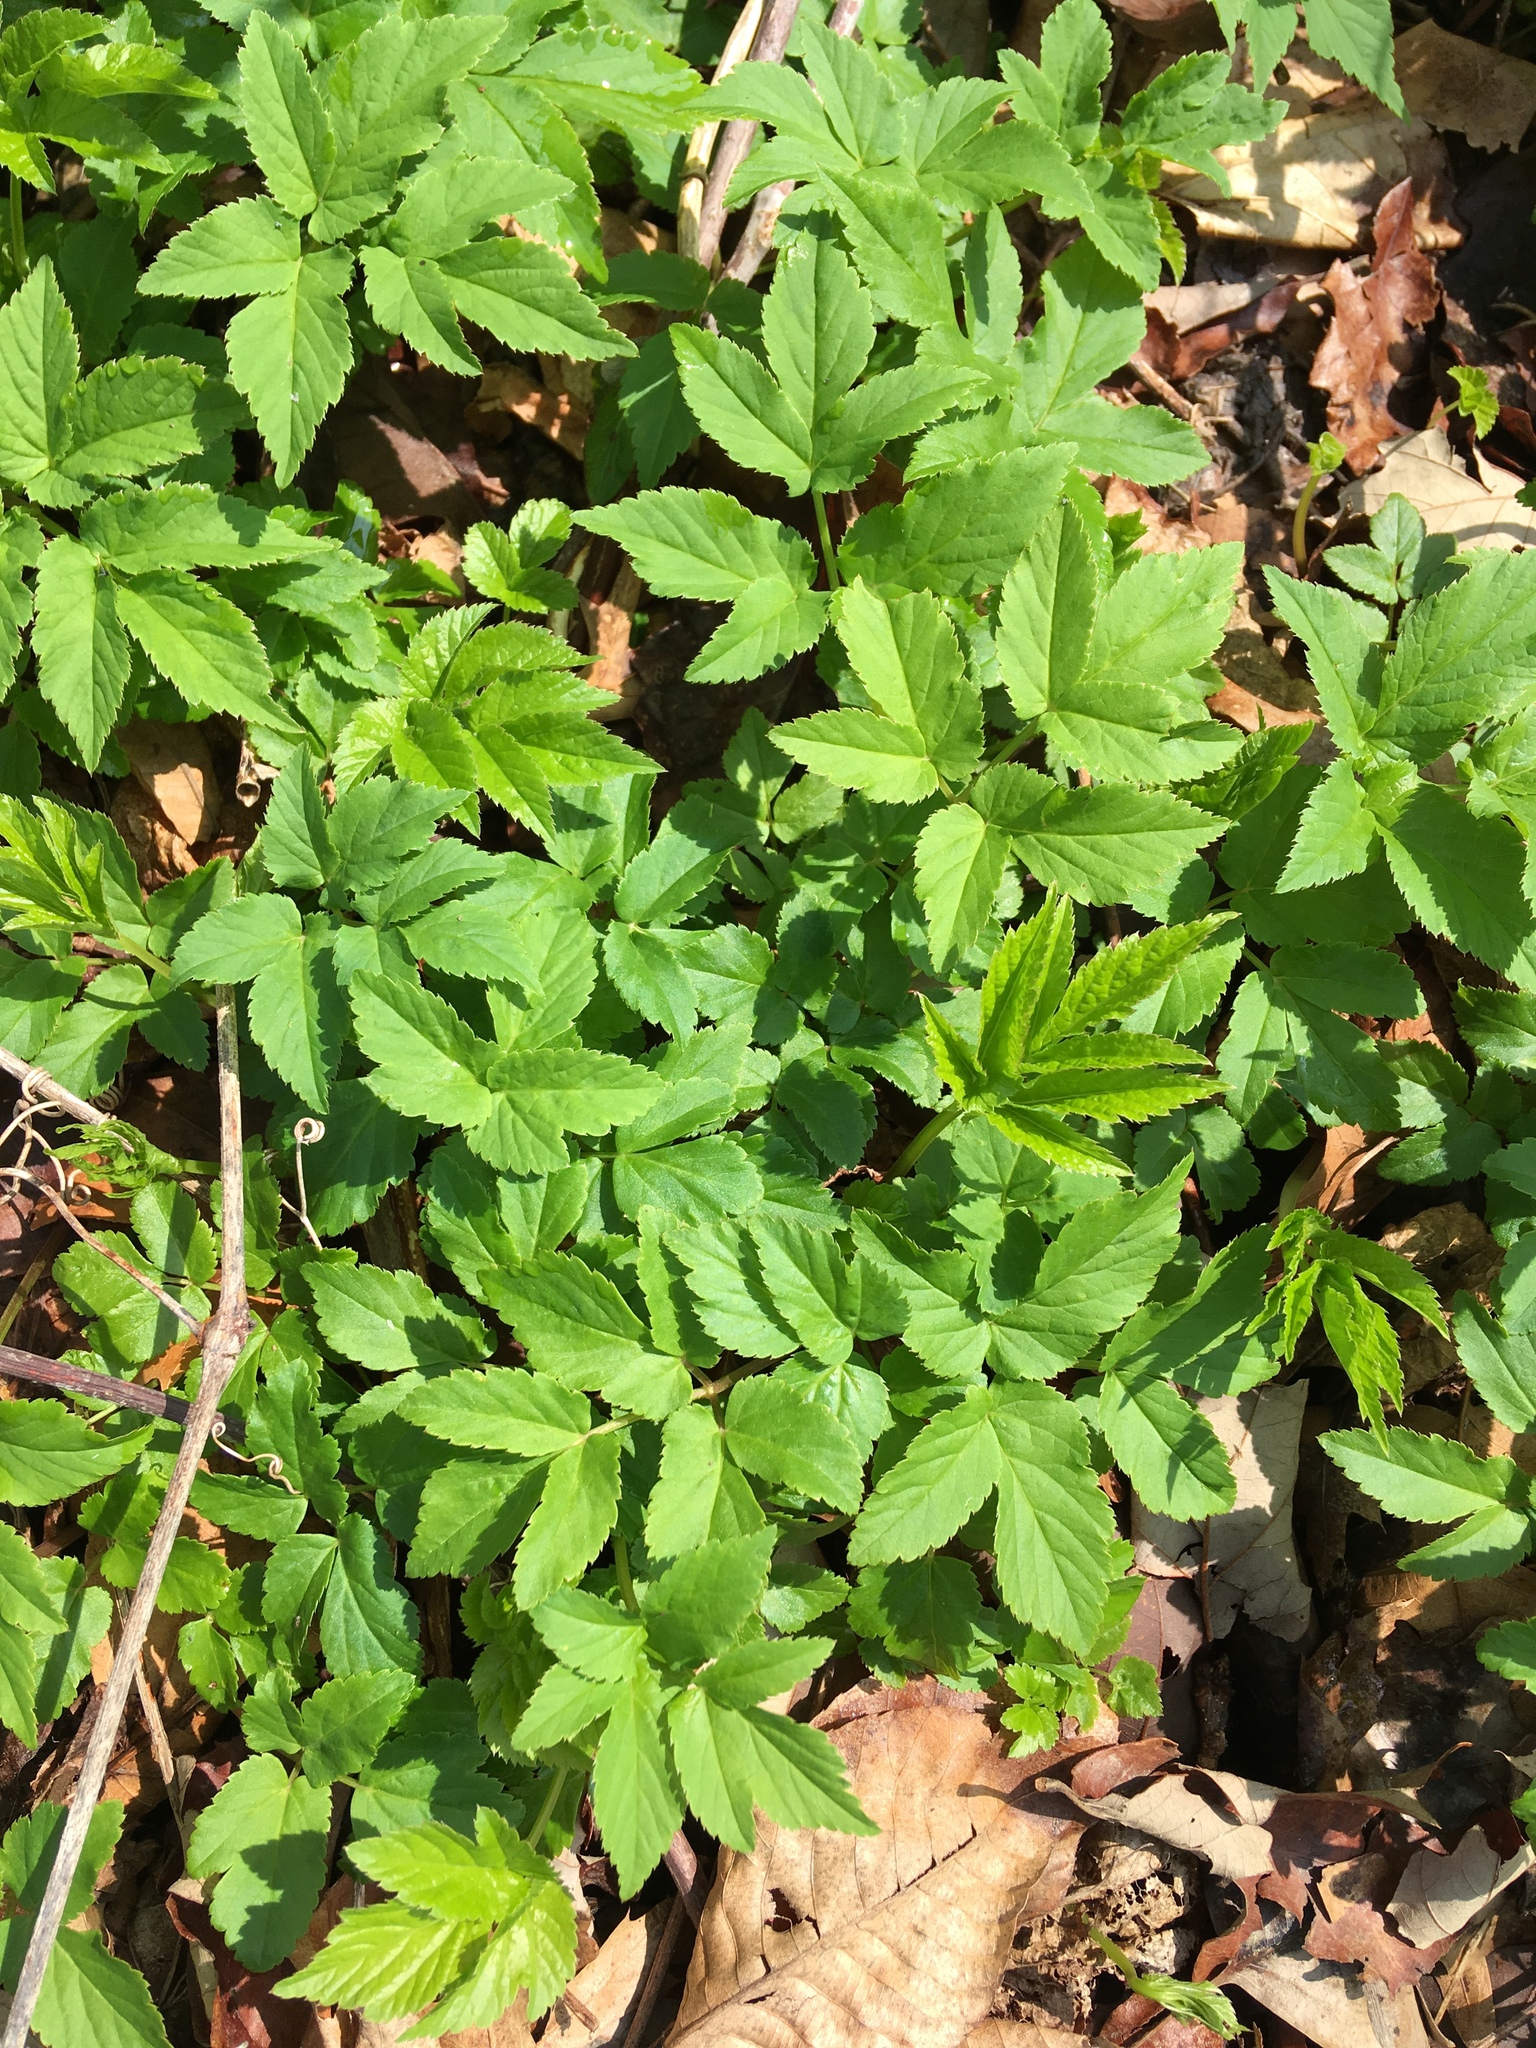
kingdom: Plantae
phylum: Tracheophyta
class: Magnoliopsida
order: Apiales
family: Apiaceae
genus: Aegopodium
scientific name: Aegopodium podagraria
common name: Ground-elder
